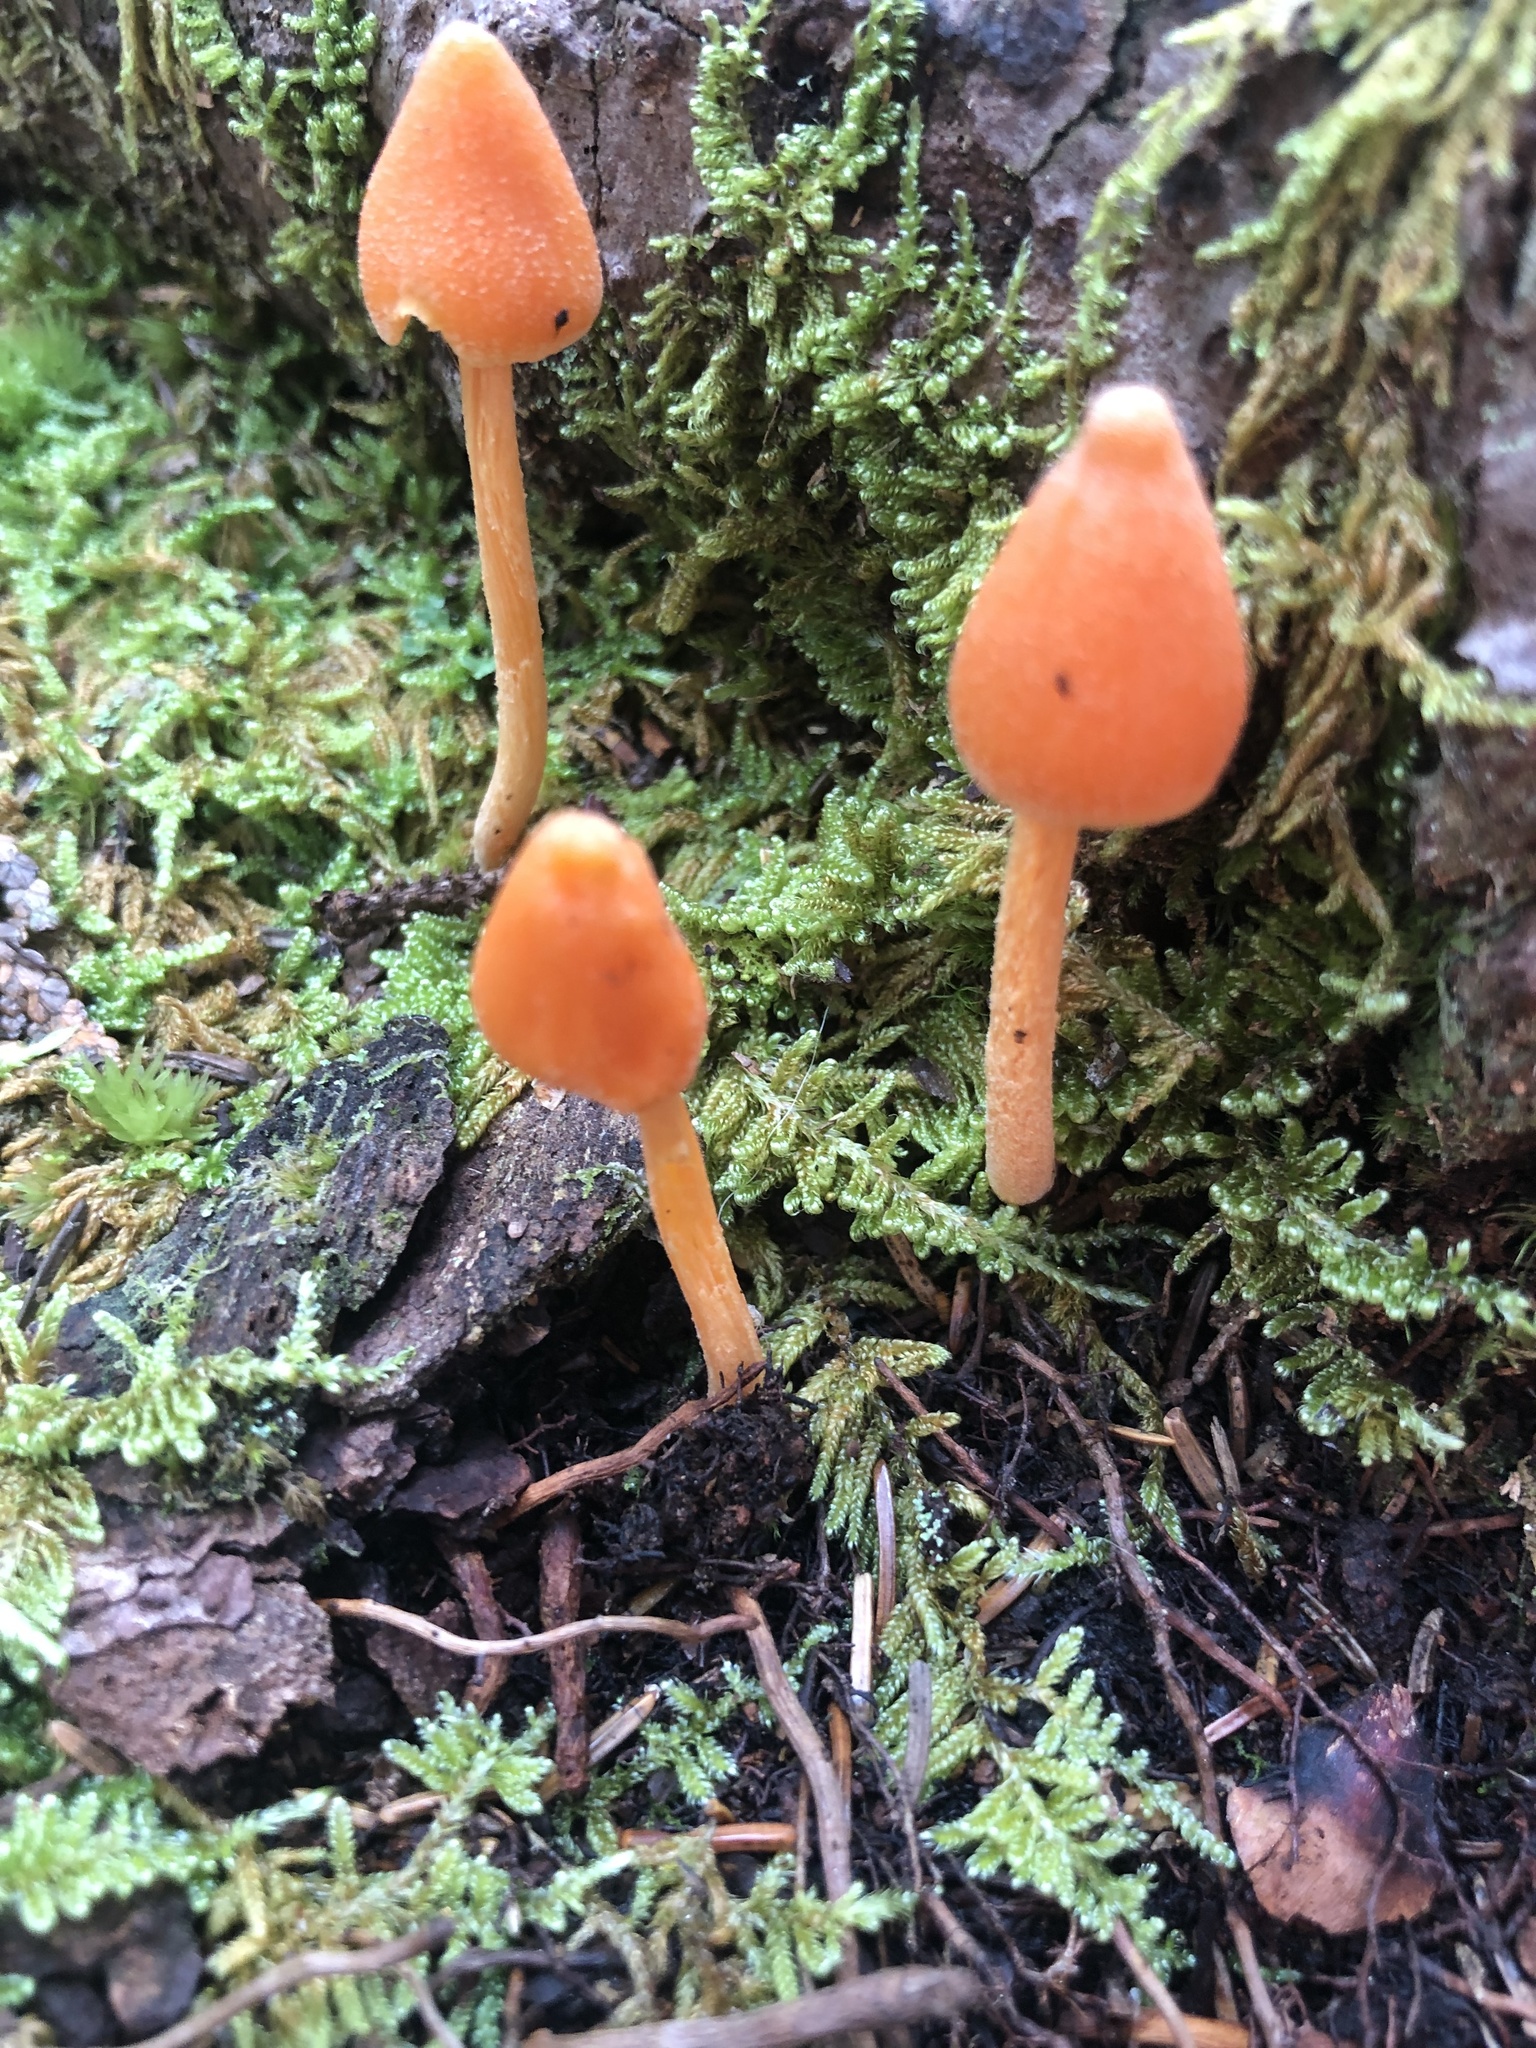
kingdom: Fungi
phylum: Basidiomycota
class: Agaricomycetes
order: Agaricales
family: Entolomataceae
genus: Entoloma
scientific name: Entoloma quadratum
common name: Salmon pinkgill
